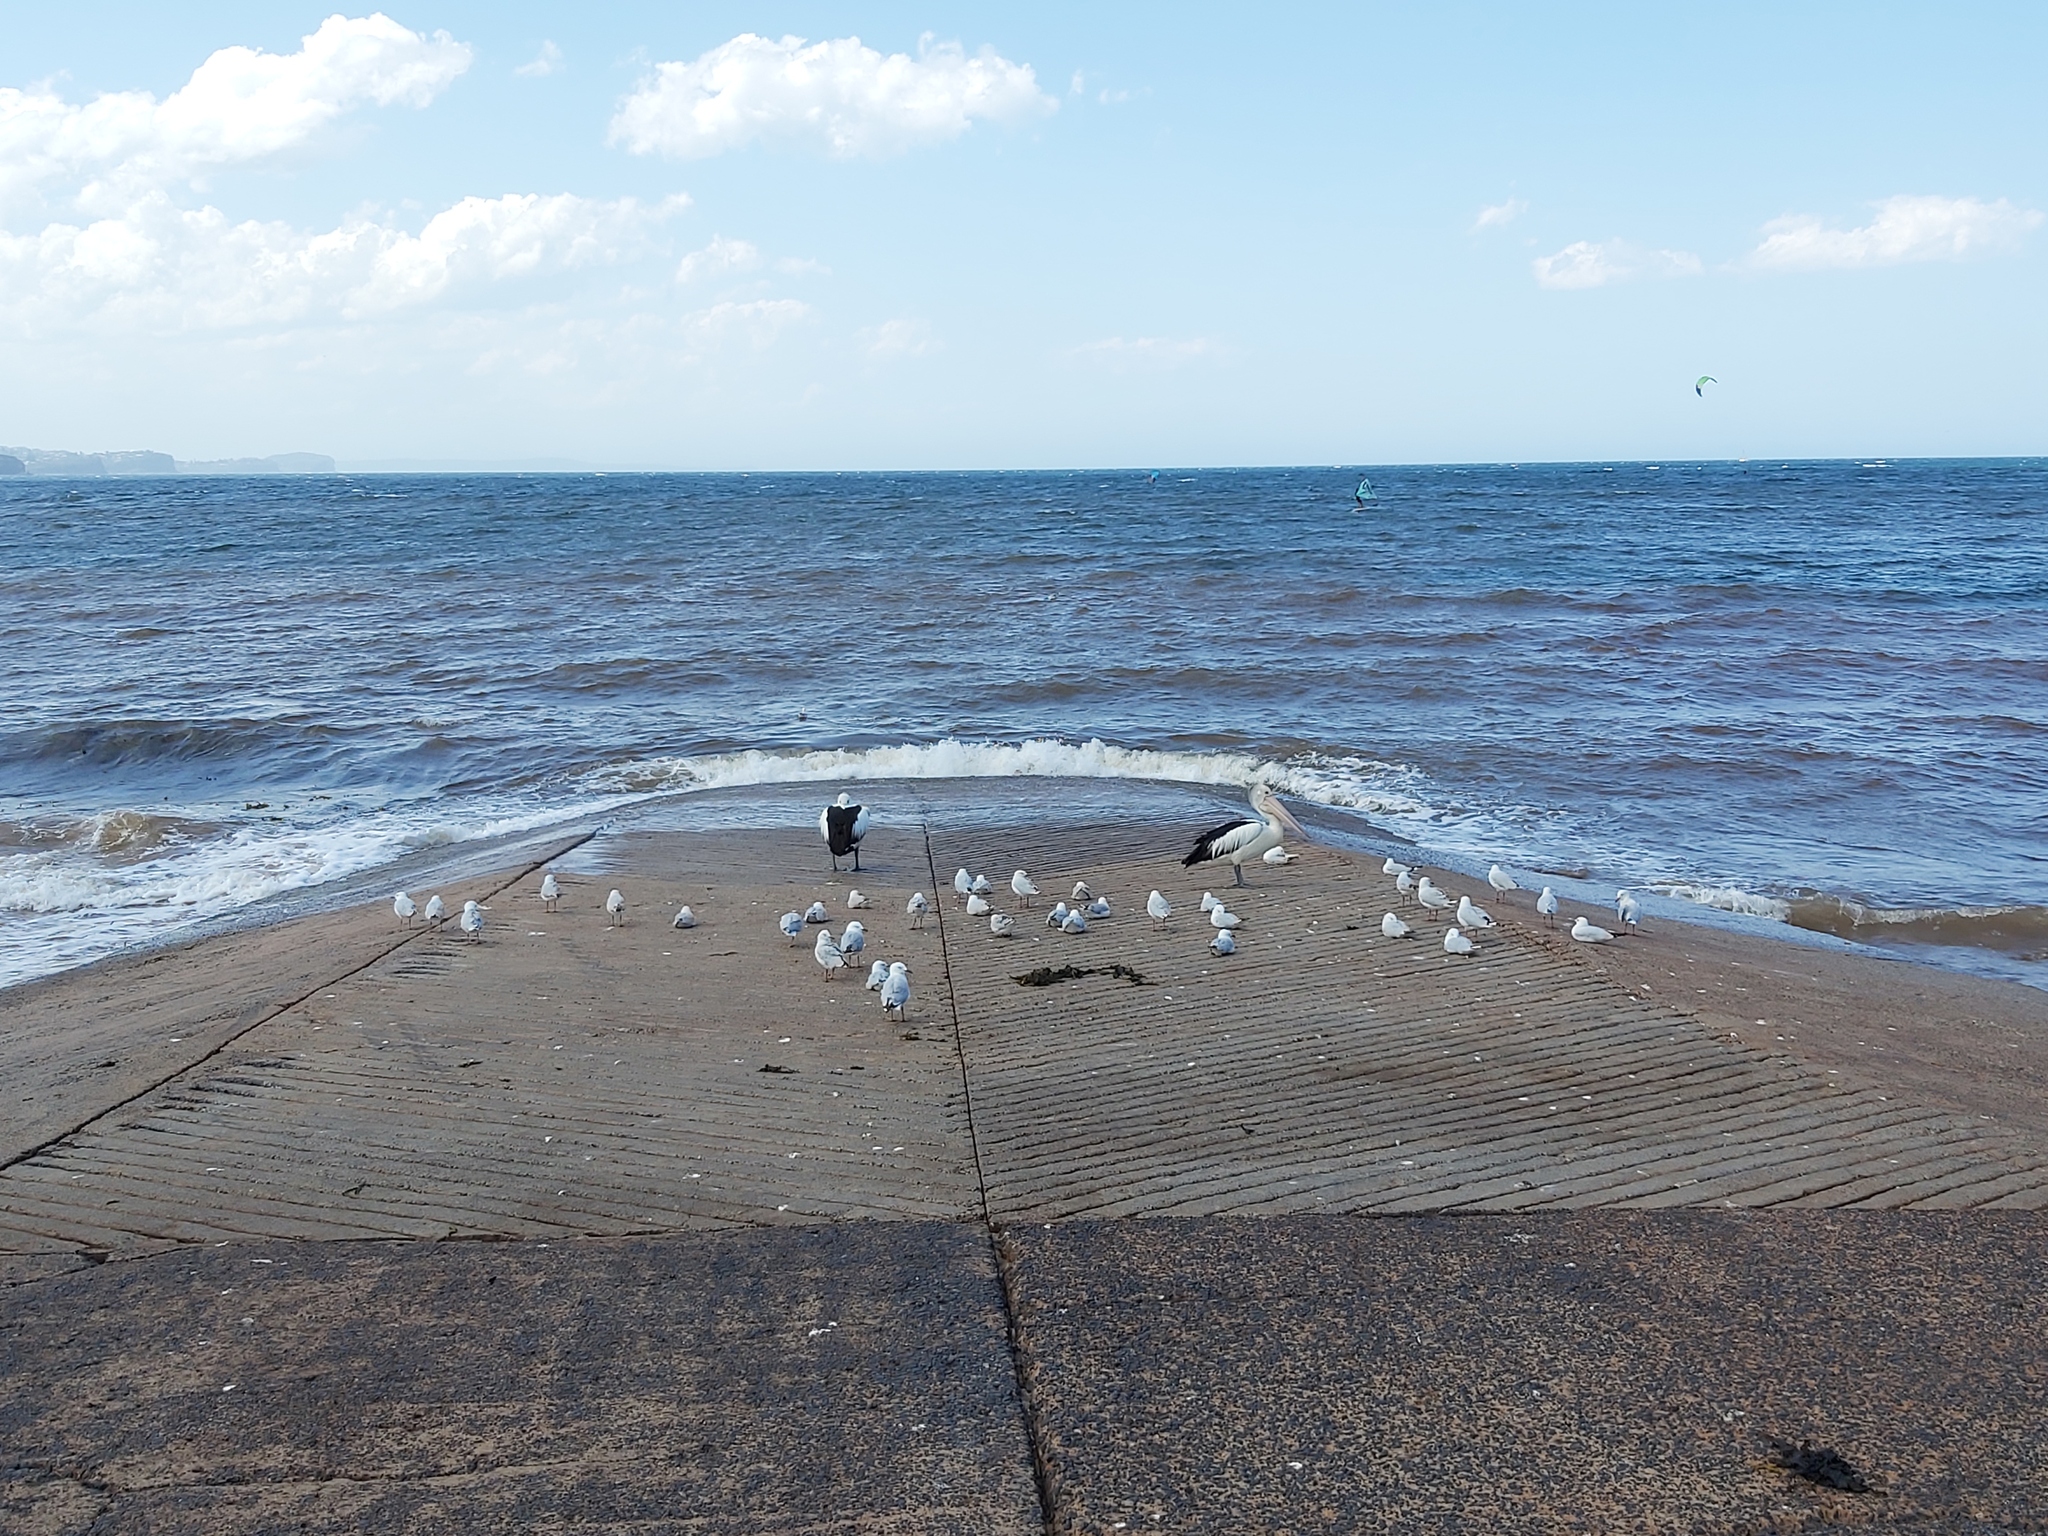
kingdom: Animalia
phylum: Chordata
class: Aves
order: Charadriiformes
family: Laridae
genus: Chroicocephalus
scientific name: Chroicocephalus novaehollandiae
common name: Silver gull
